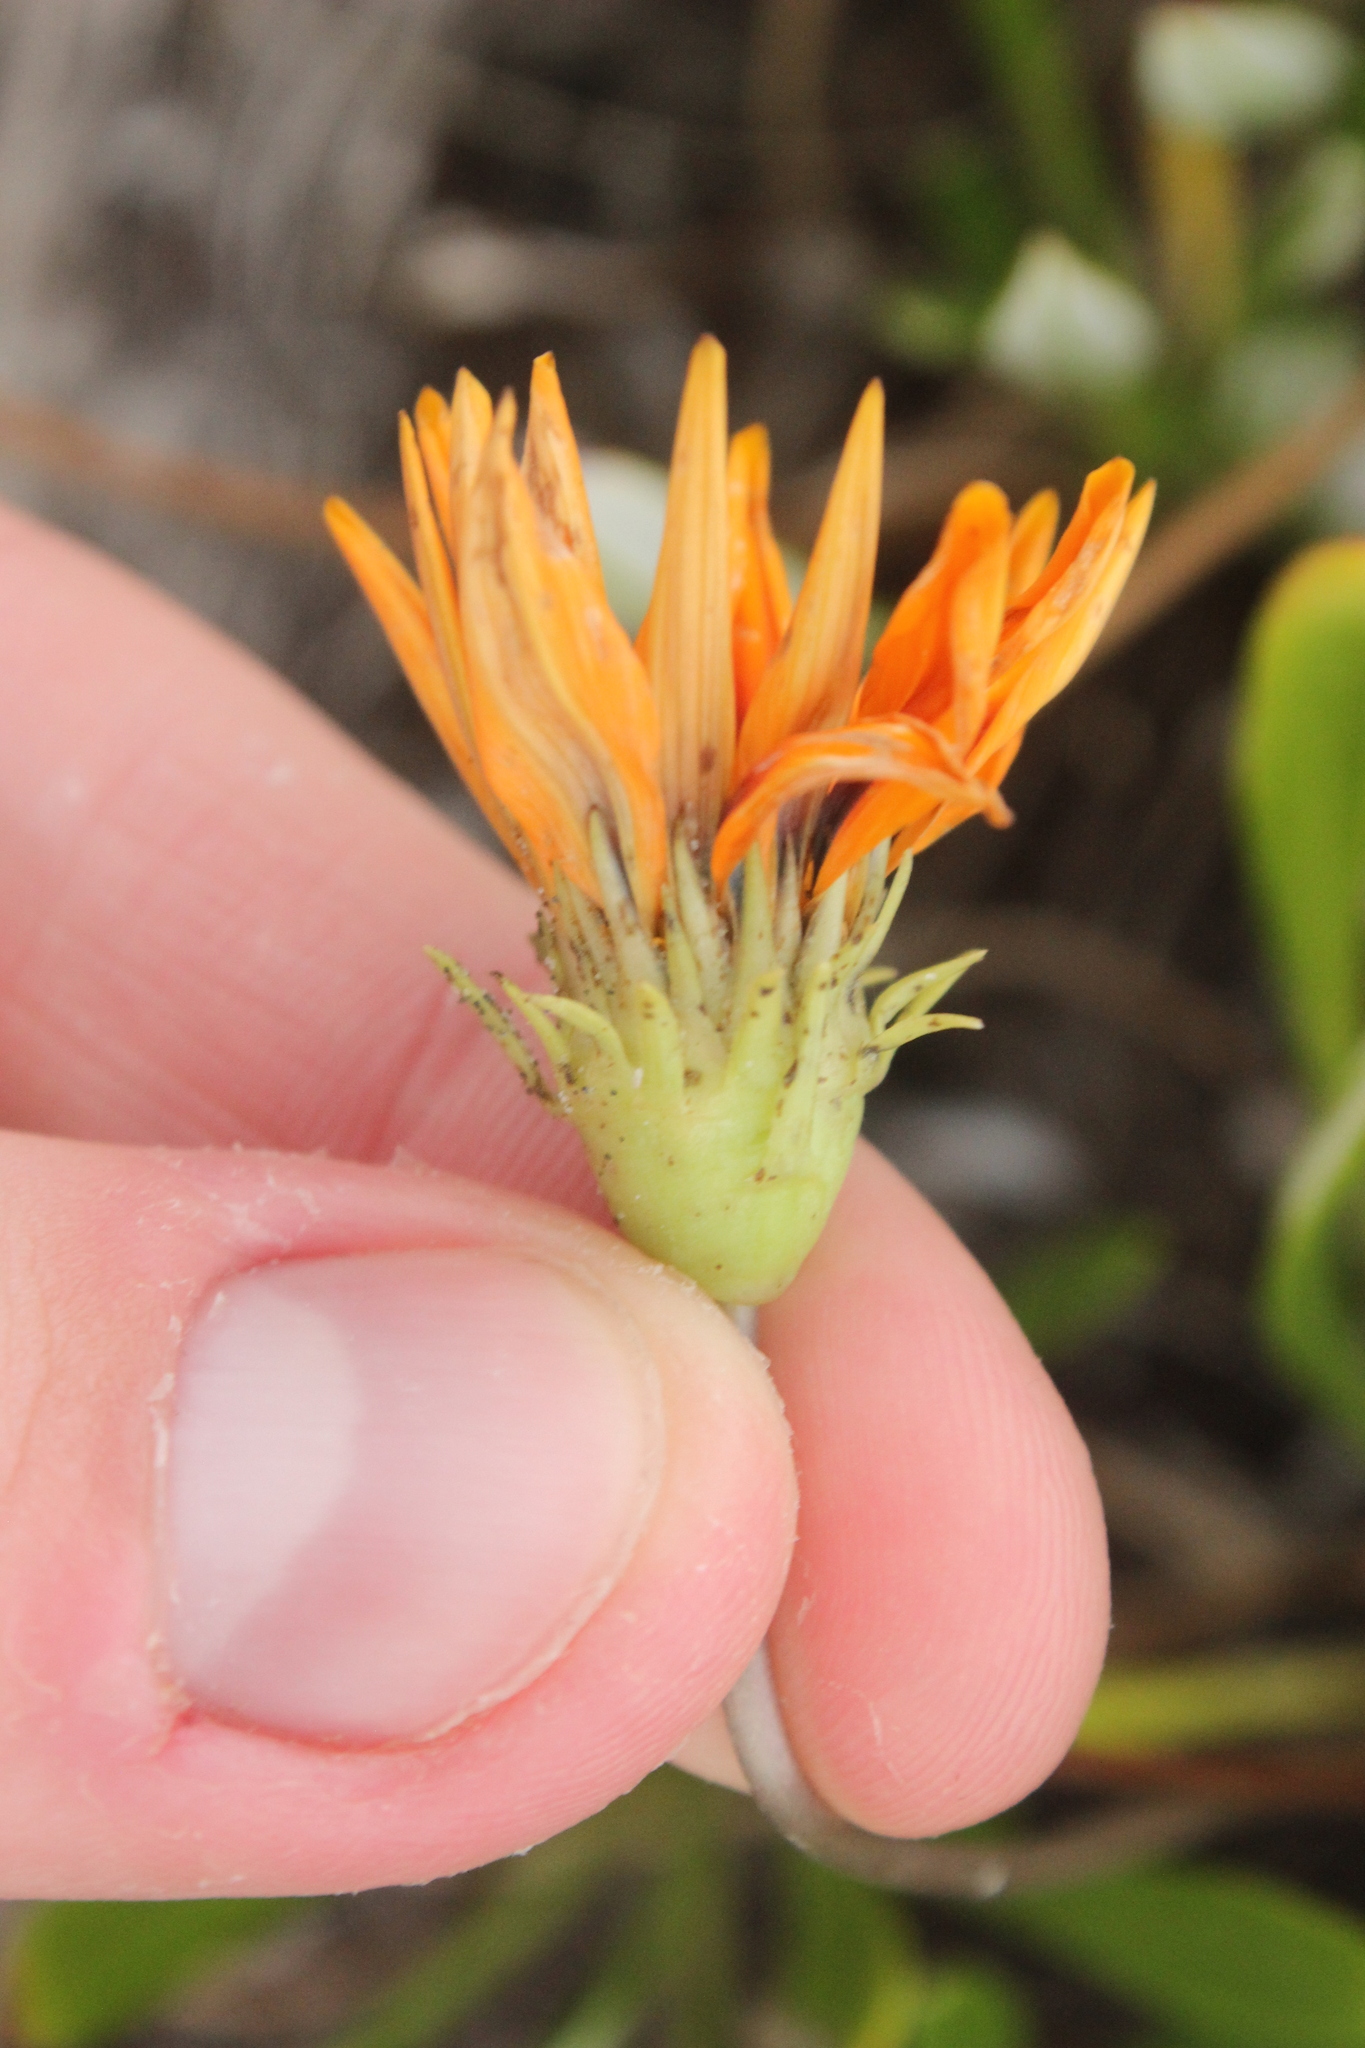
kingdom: Plantae
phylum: Tracheophyta
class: Magnoliopsida
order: Asterales
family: Asteraceae
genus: Gazania
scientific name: Gazania splendens
